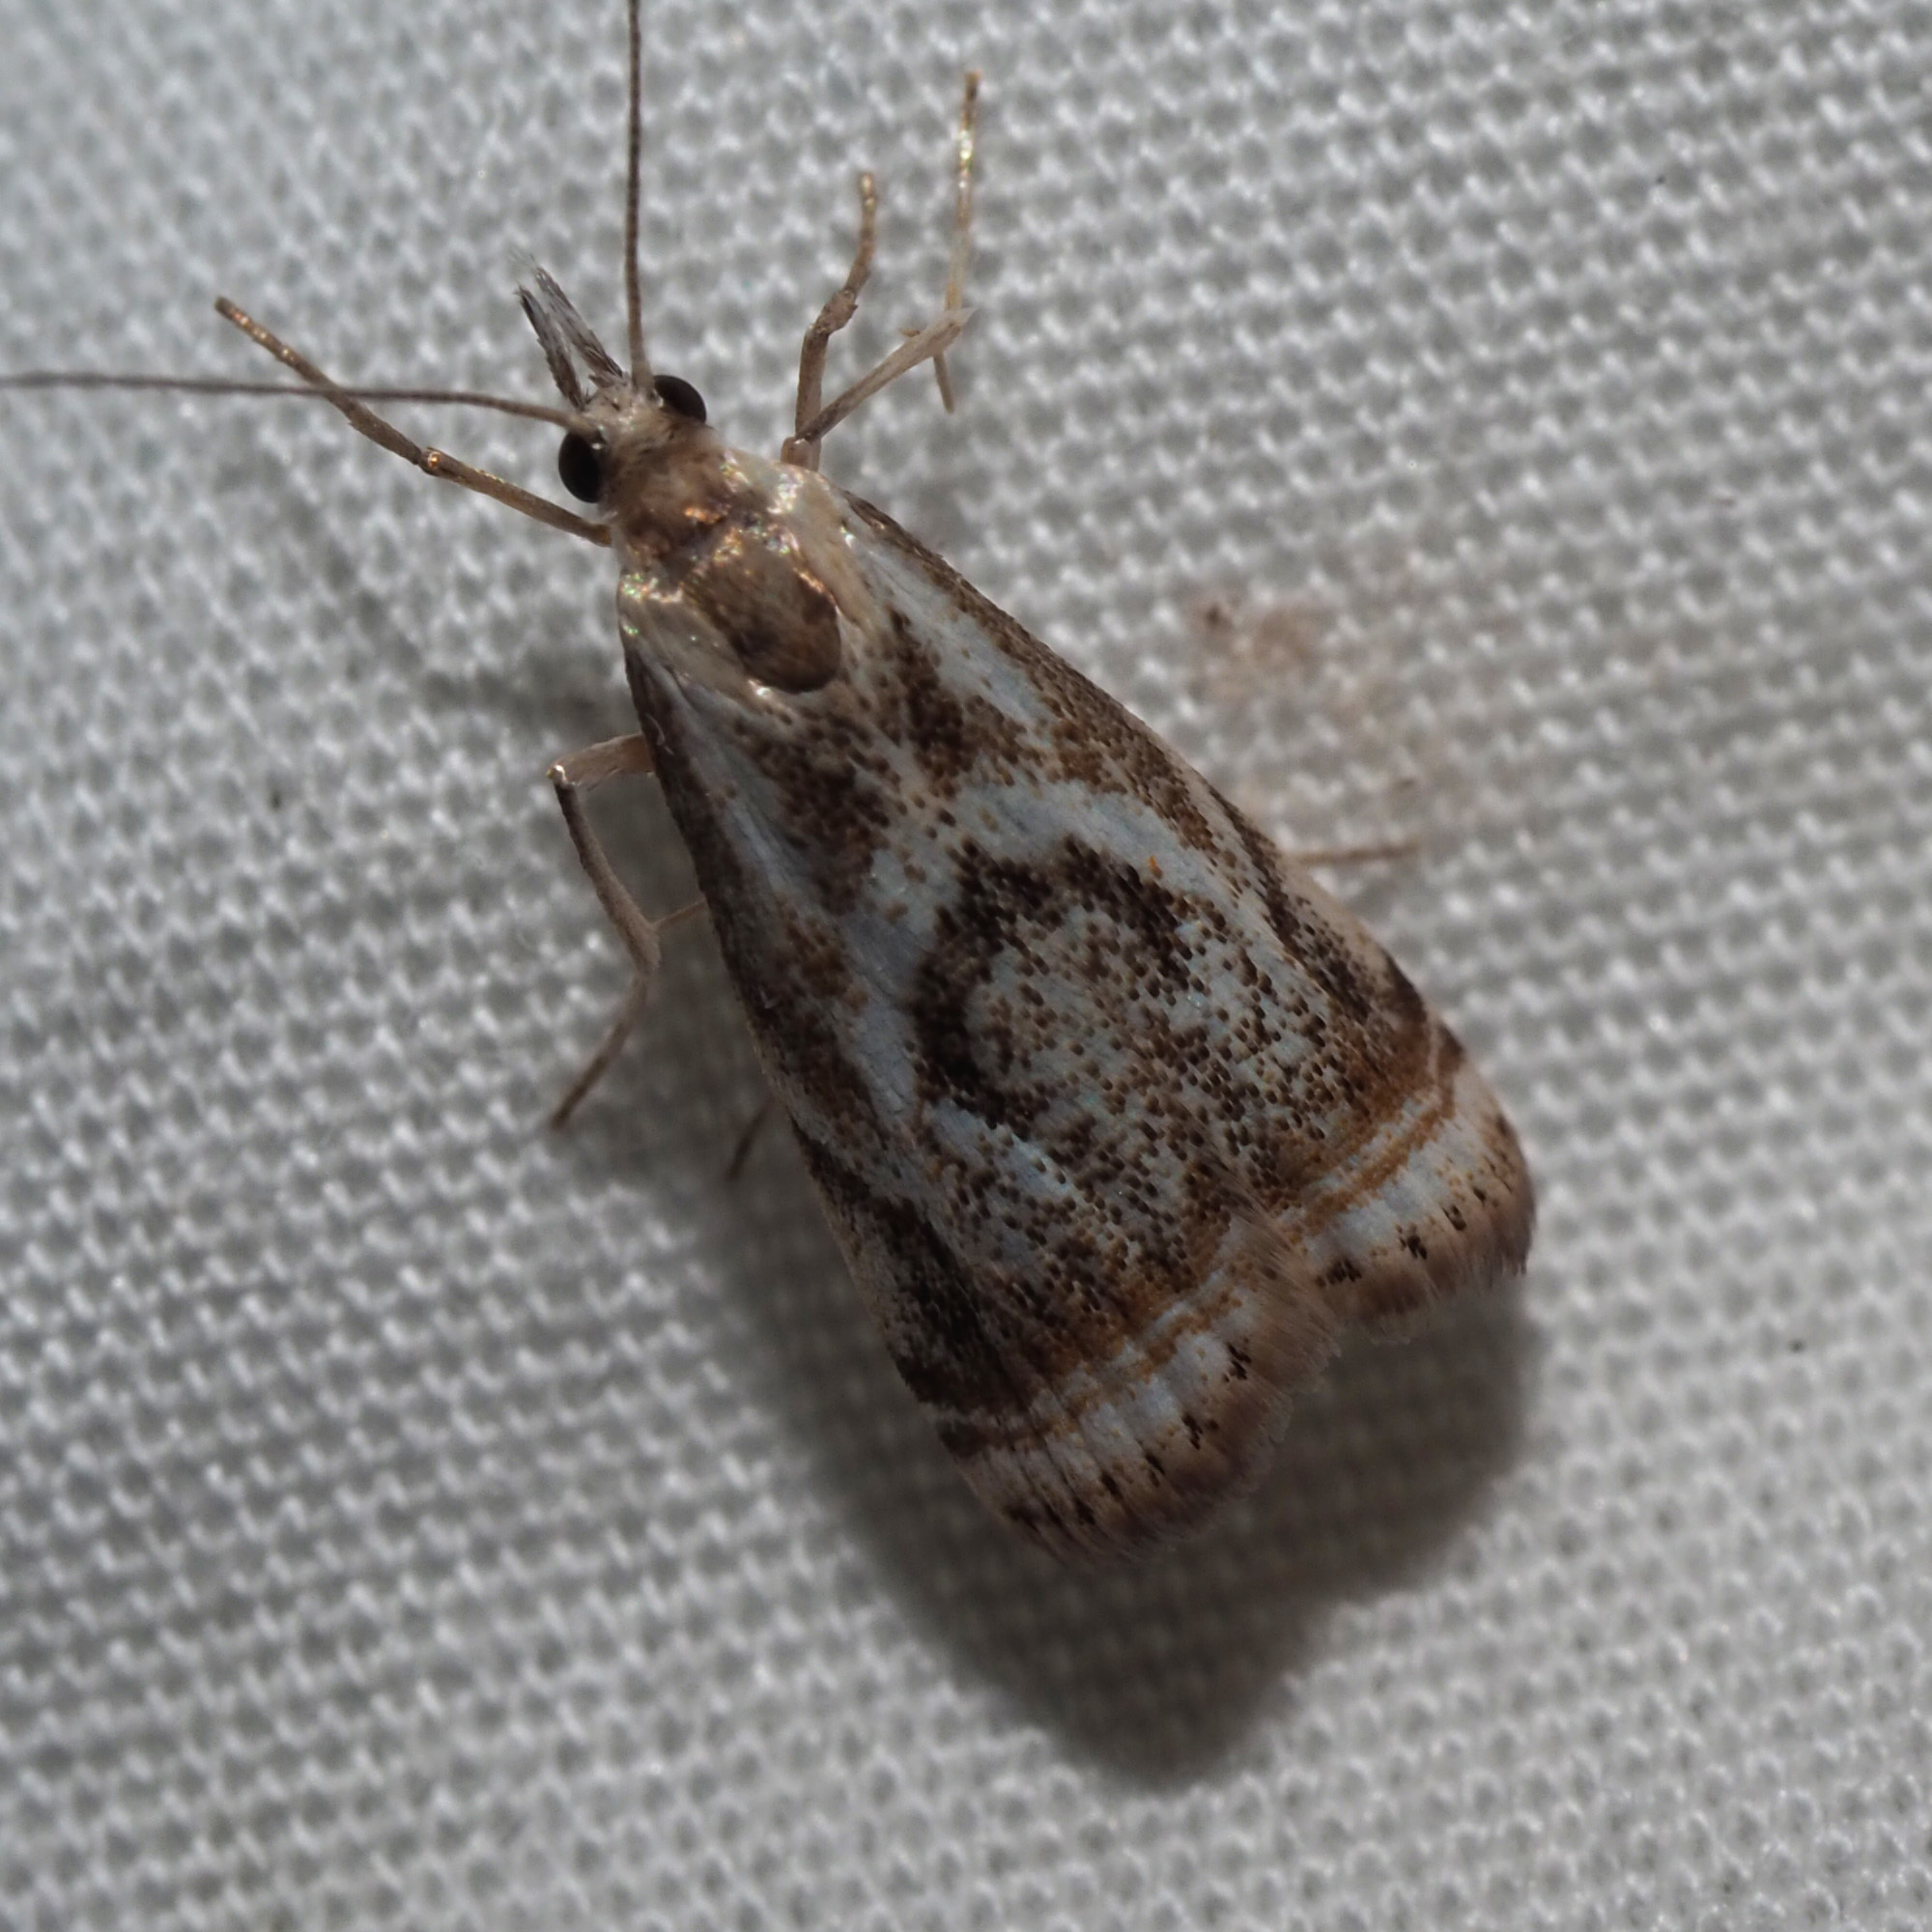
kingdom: Animalia
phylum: Arthropoda
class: Insecta
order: Lepidoptera
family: Crambidae
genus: Microcrambus
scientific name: Microcrambus elegans
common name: Elegant grass-veneer
